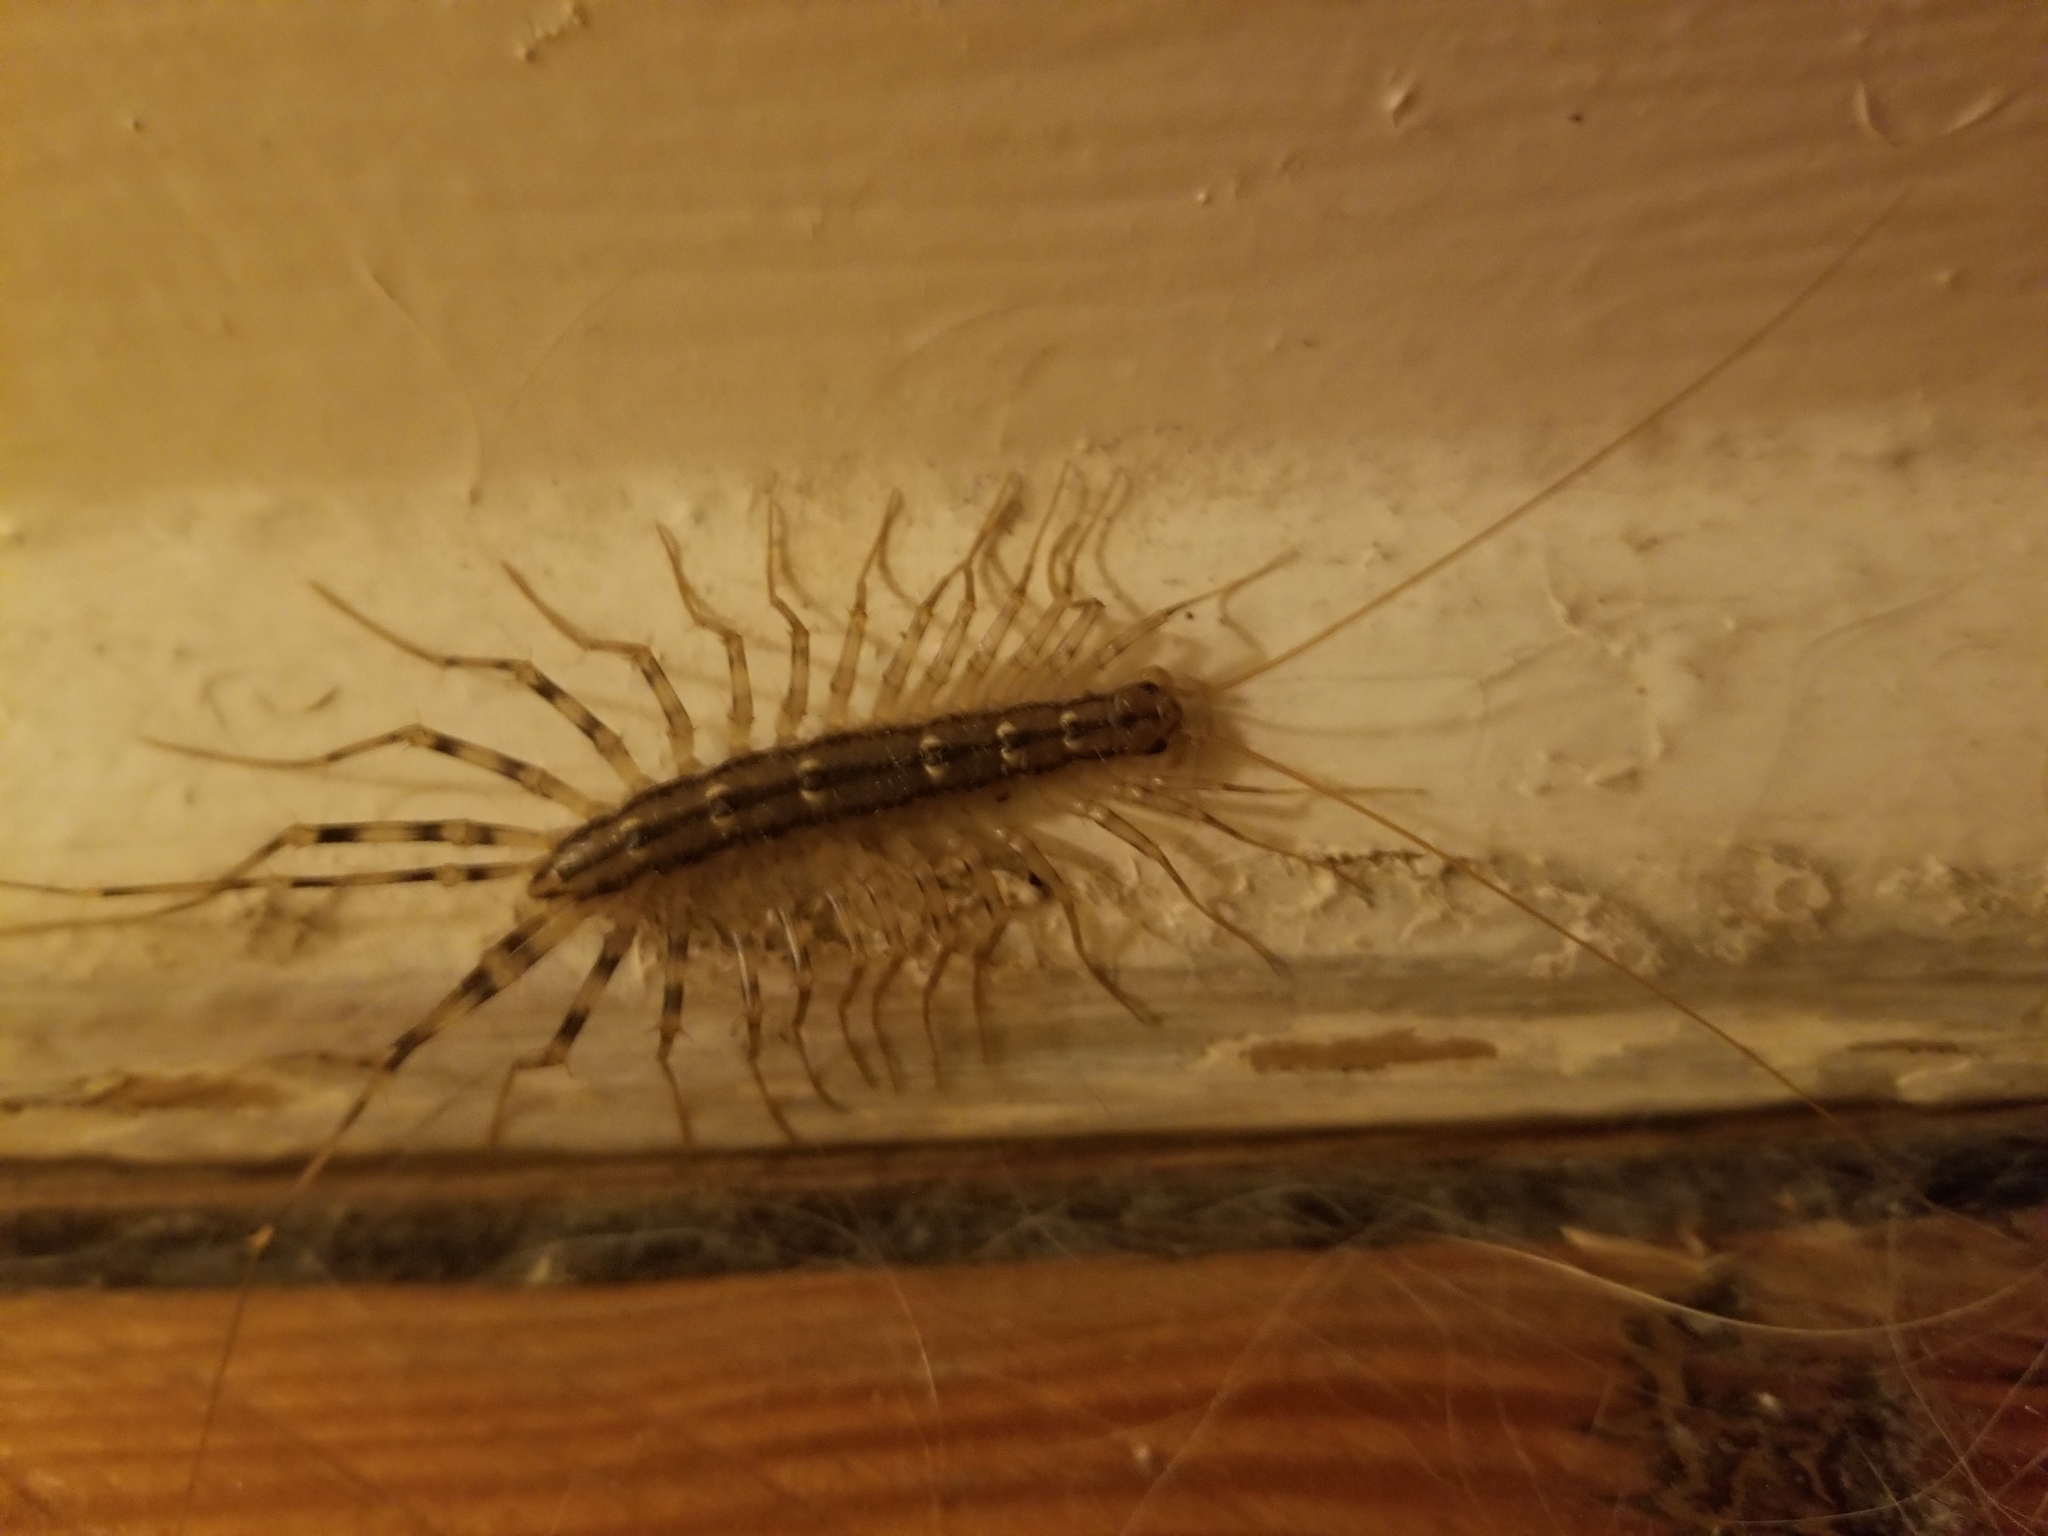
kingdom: Animalia
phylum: Arthropoda
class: Chilopoda
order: Scutigeromorpha
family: Scutigeridae
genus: Scutigera
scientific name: Scutigera coleoptrata
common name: House centipede
